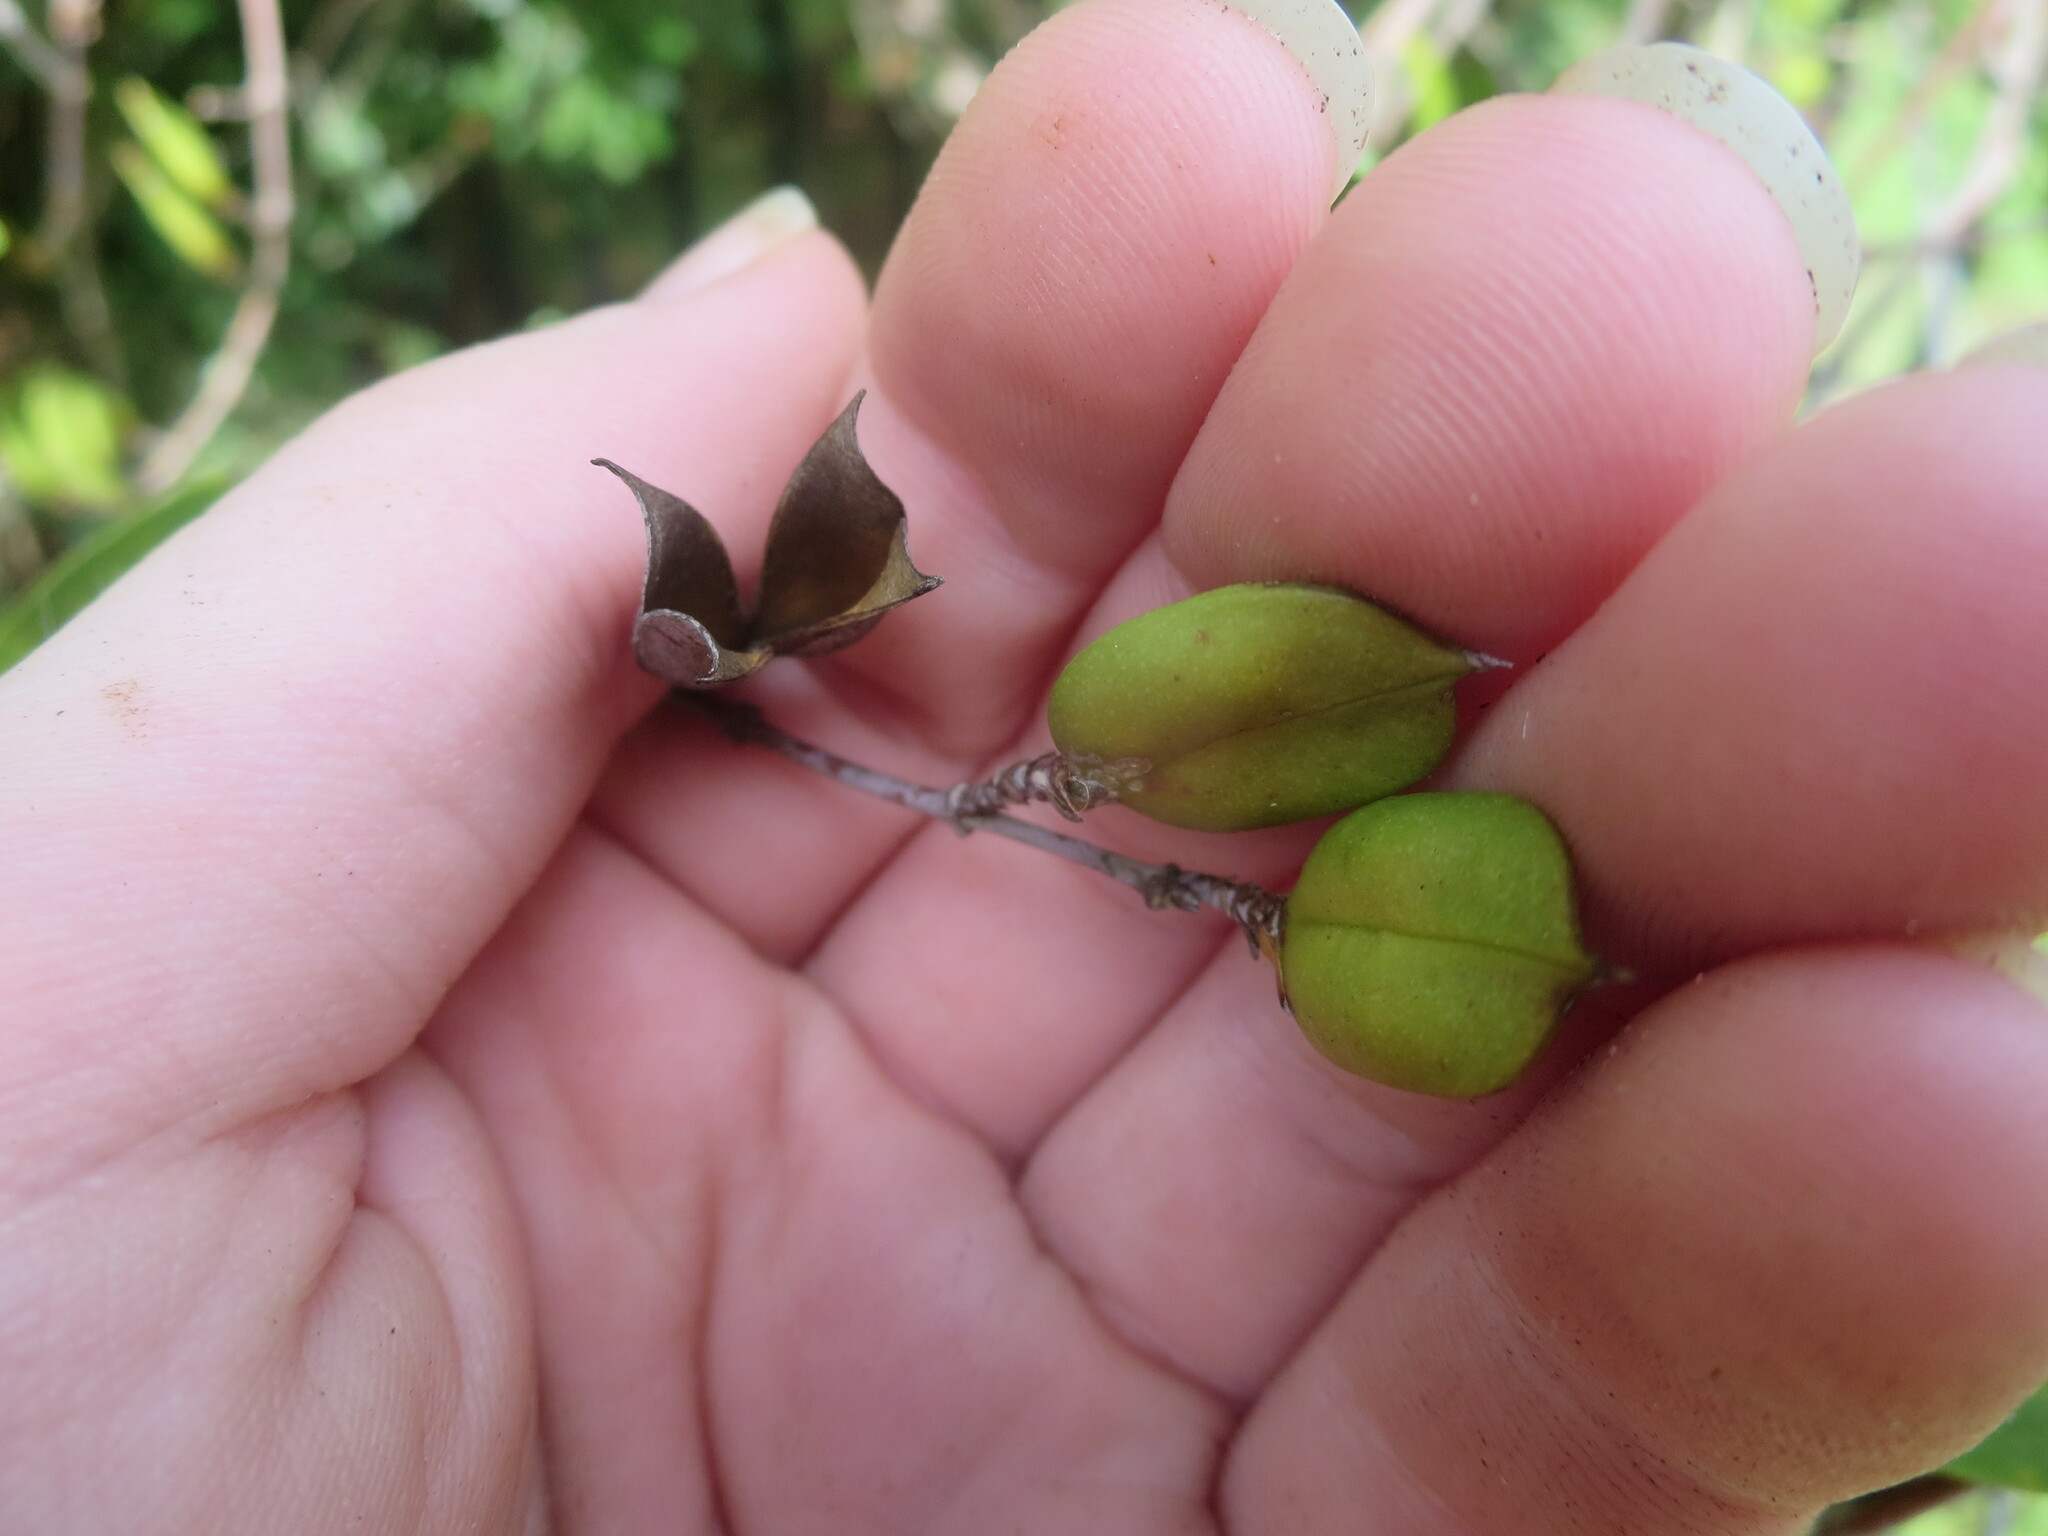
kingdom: Plantae
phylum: Tracheophyta
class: Magnoliopsida
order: Gentianales
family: Gelsemiaceae
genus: Gelsemium
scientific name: Gelsemium sempervirens
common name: Carolina-jasmine
